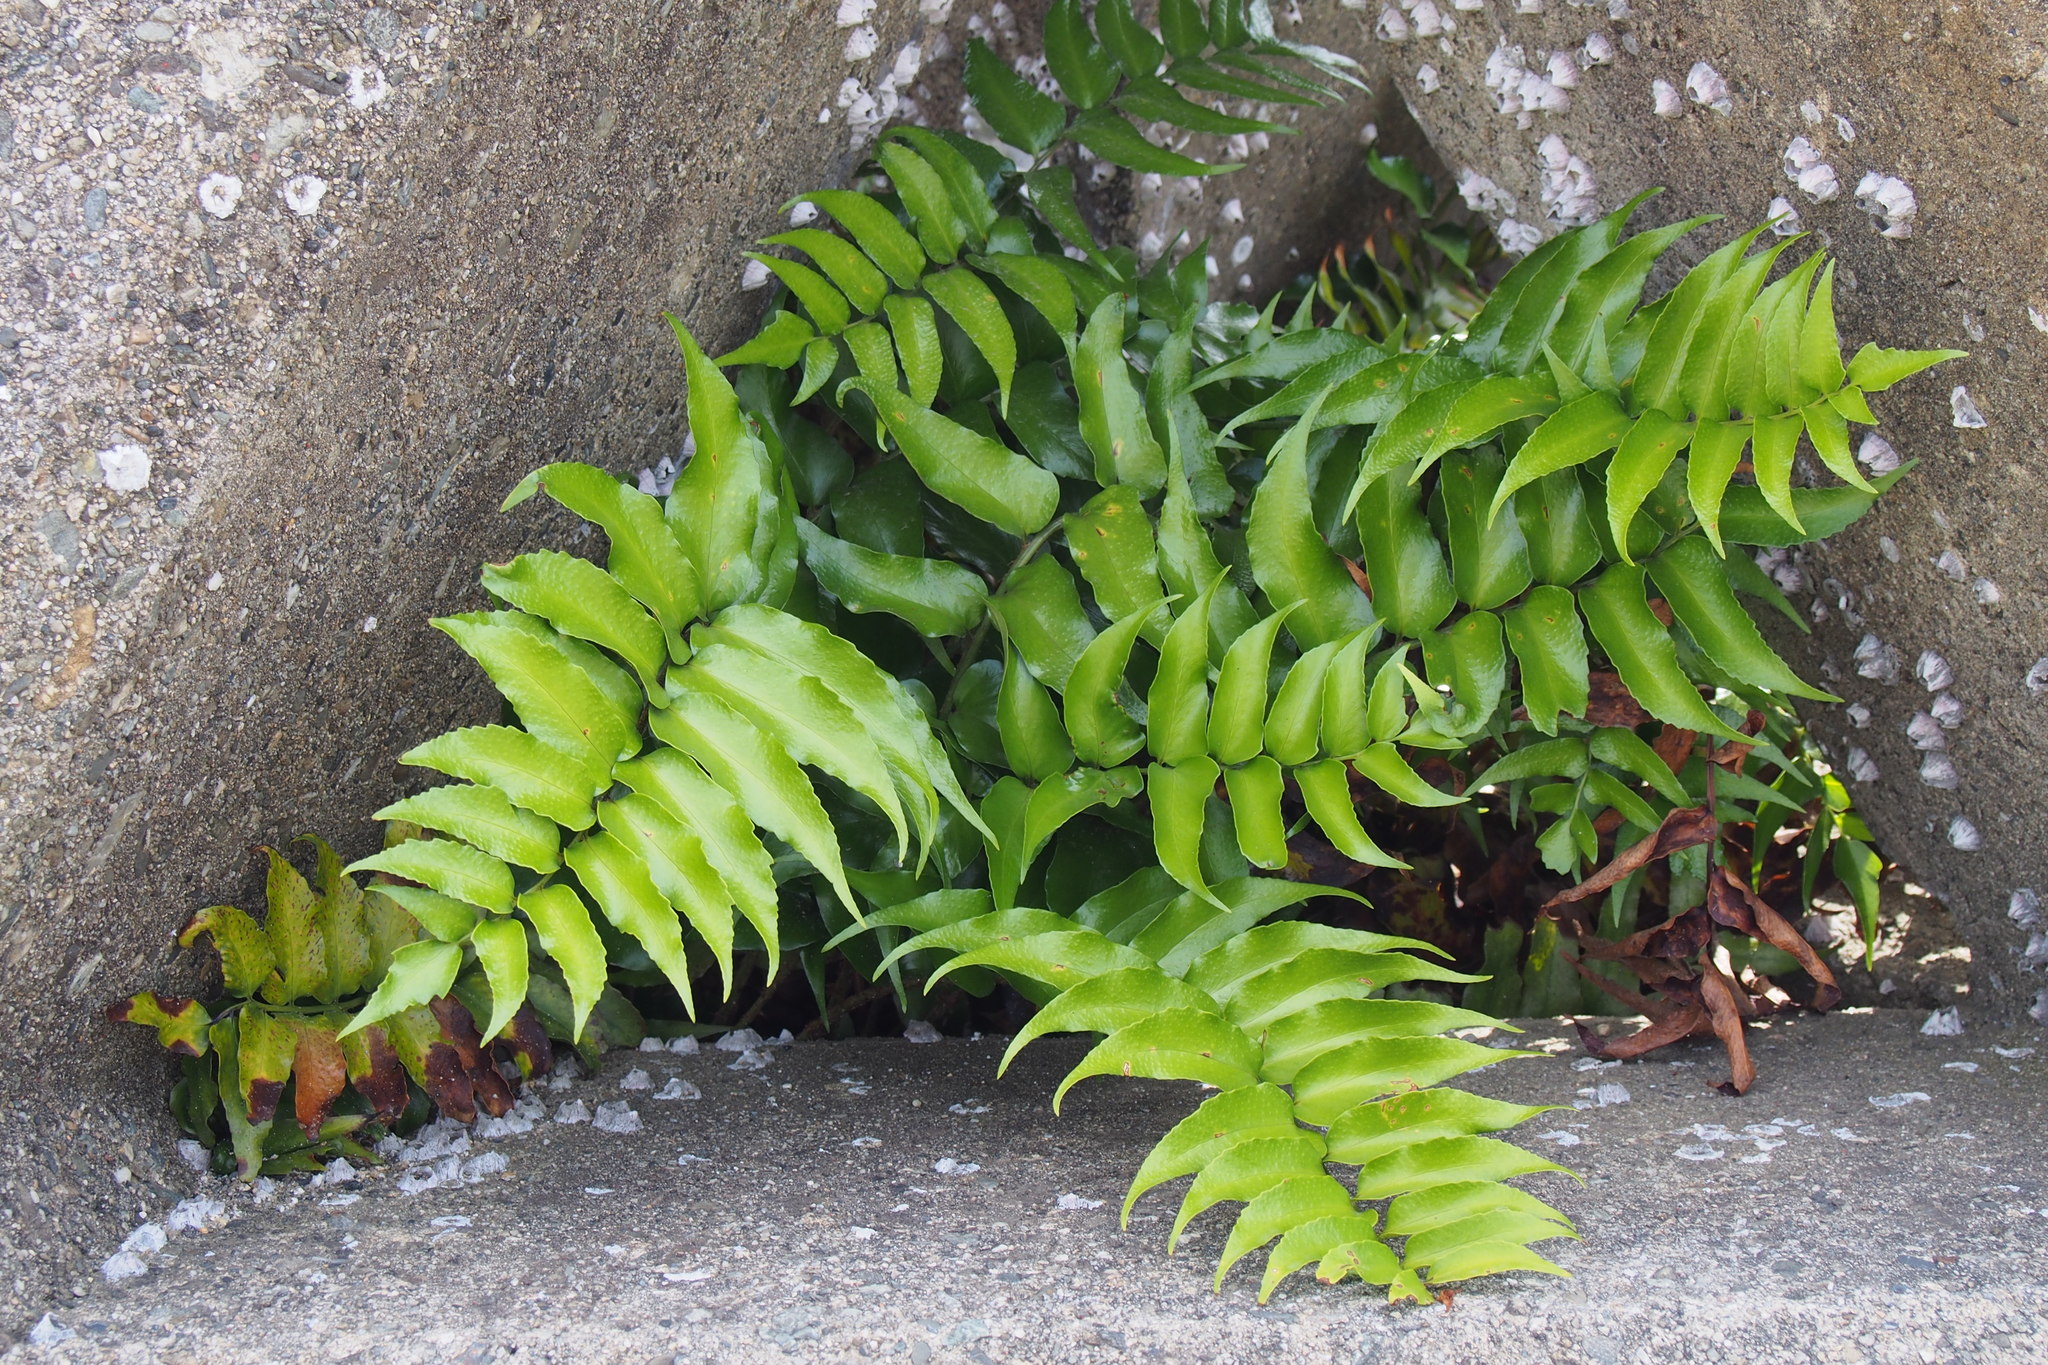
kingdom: Plantae
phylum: Tracheophyta
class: Polypodiopsida
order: Polypodiales
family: Dryopteridaceae
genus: Cyrtomium
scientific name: Cyrtomium falcatum
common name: House holly-fern
